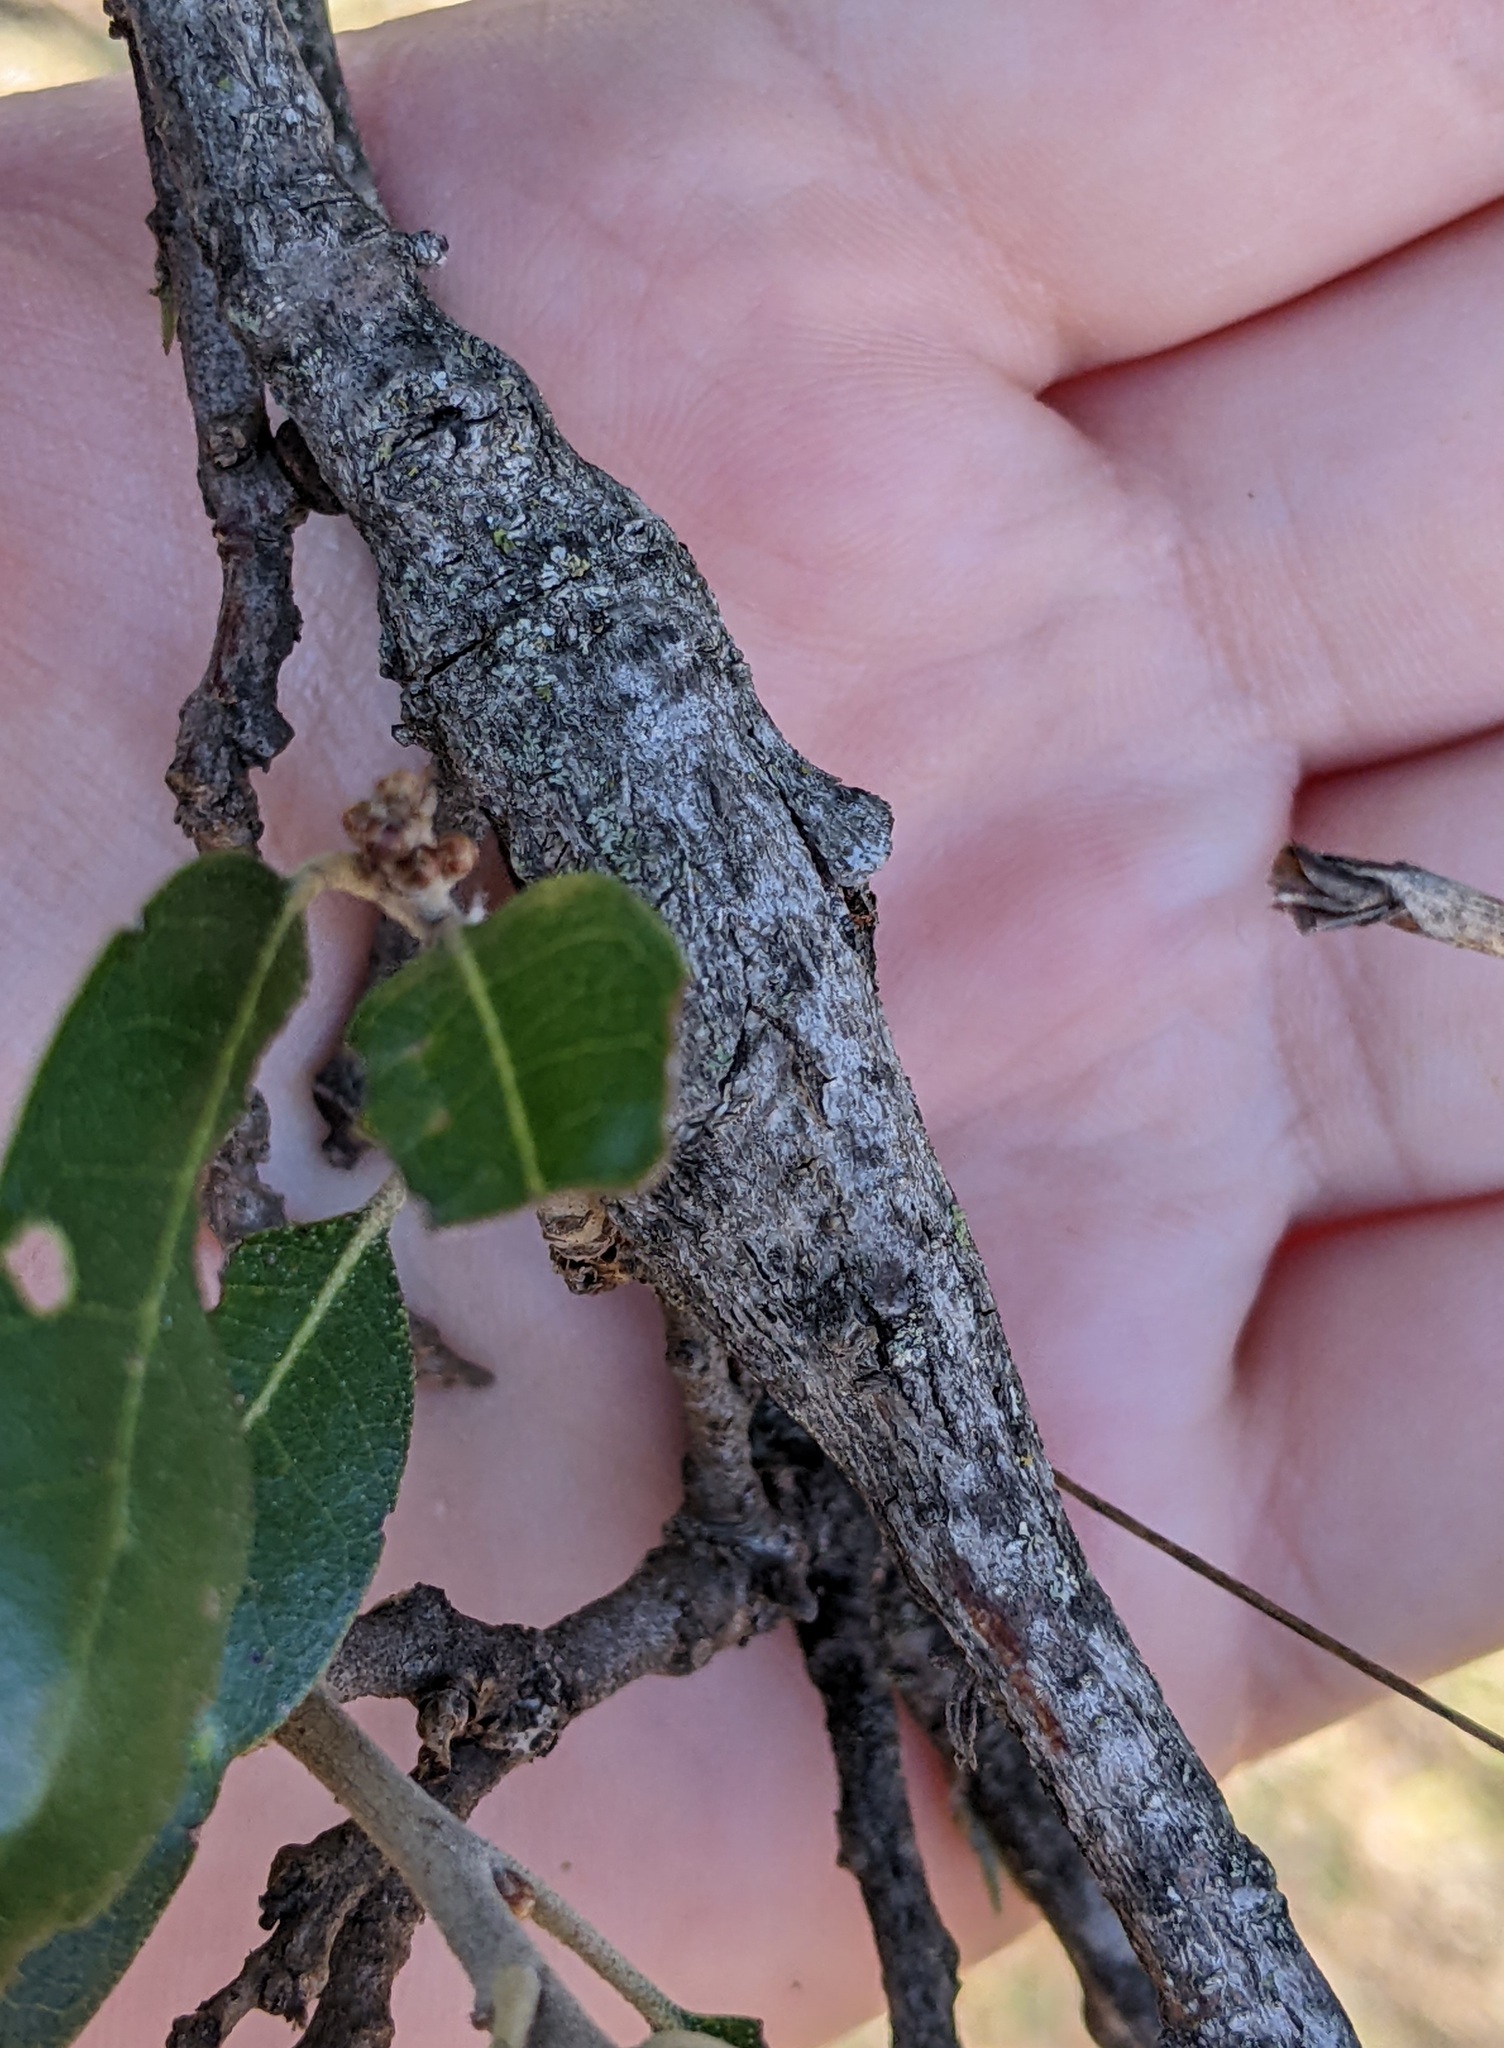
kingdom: Animalia
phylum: Arthropoda
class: Insecta
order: Diptera
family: Cecidomyiidae
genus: Bruggmanniella
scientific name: Bruggmanniella bumeliae
